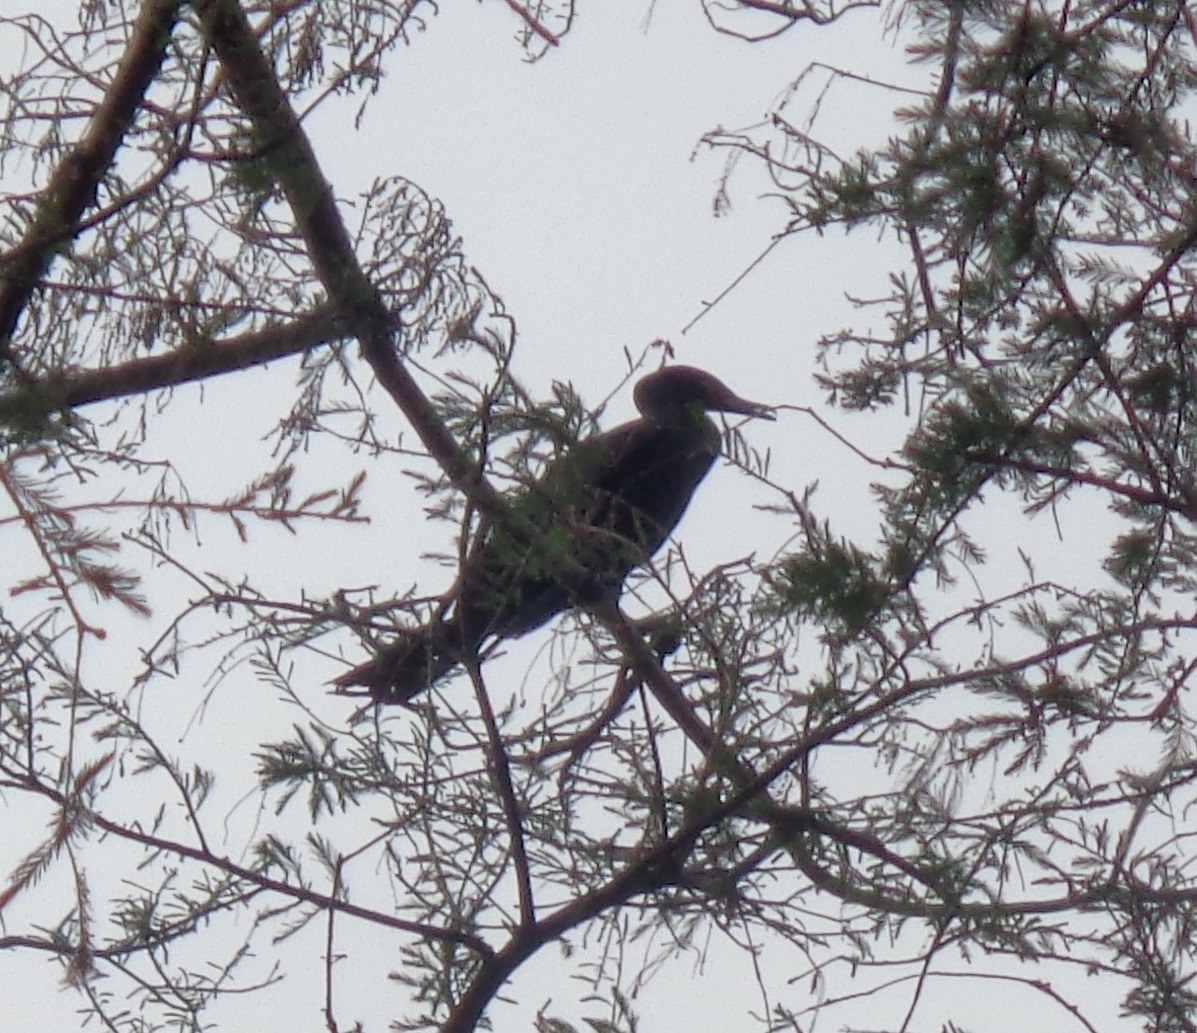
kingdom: Animalia
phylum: Chordata
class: Aves
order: Suliformes
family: Phalacrocoracidae
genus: Phalacrocorax
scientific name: Phalacrocorax brasilianus
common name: Neotropic cormorant
